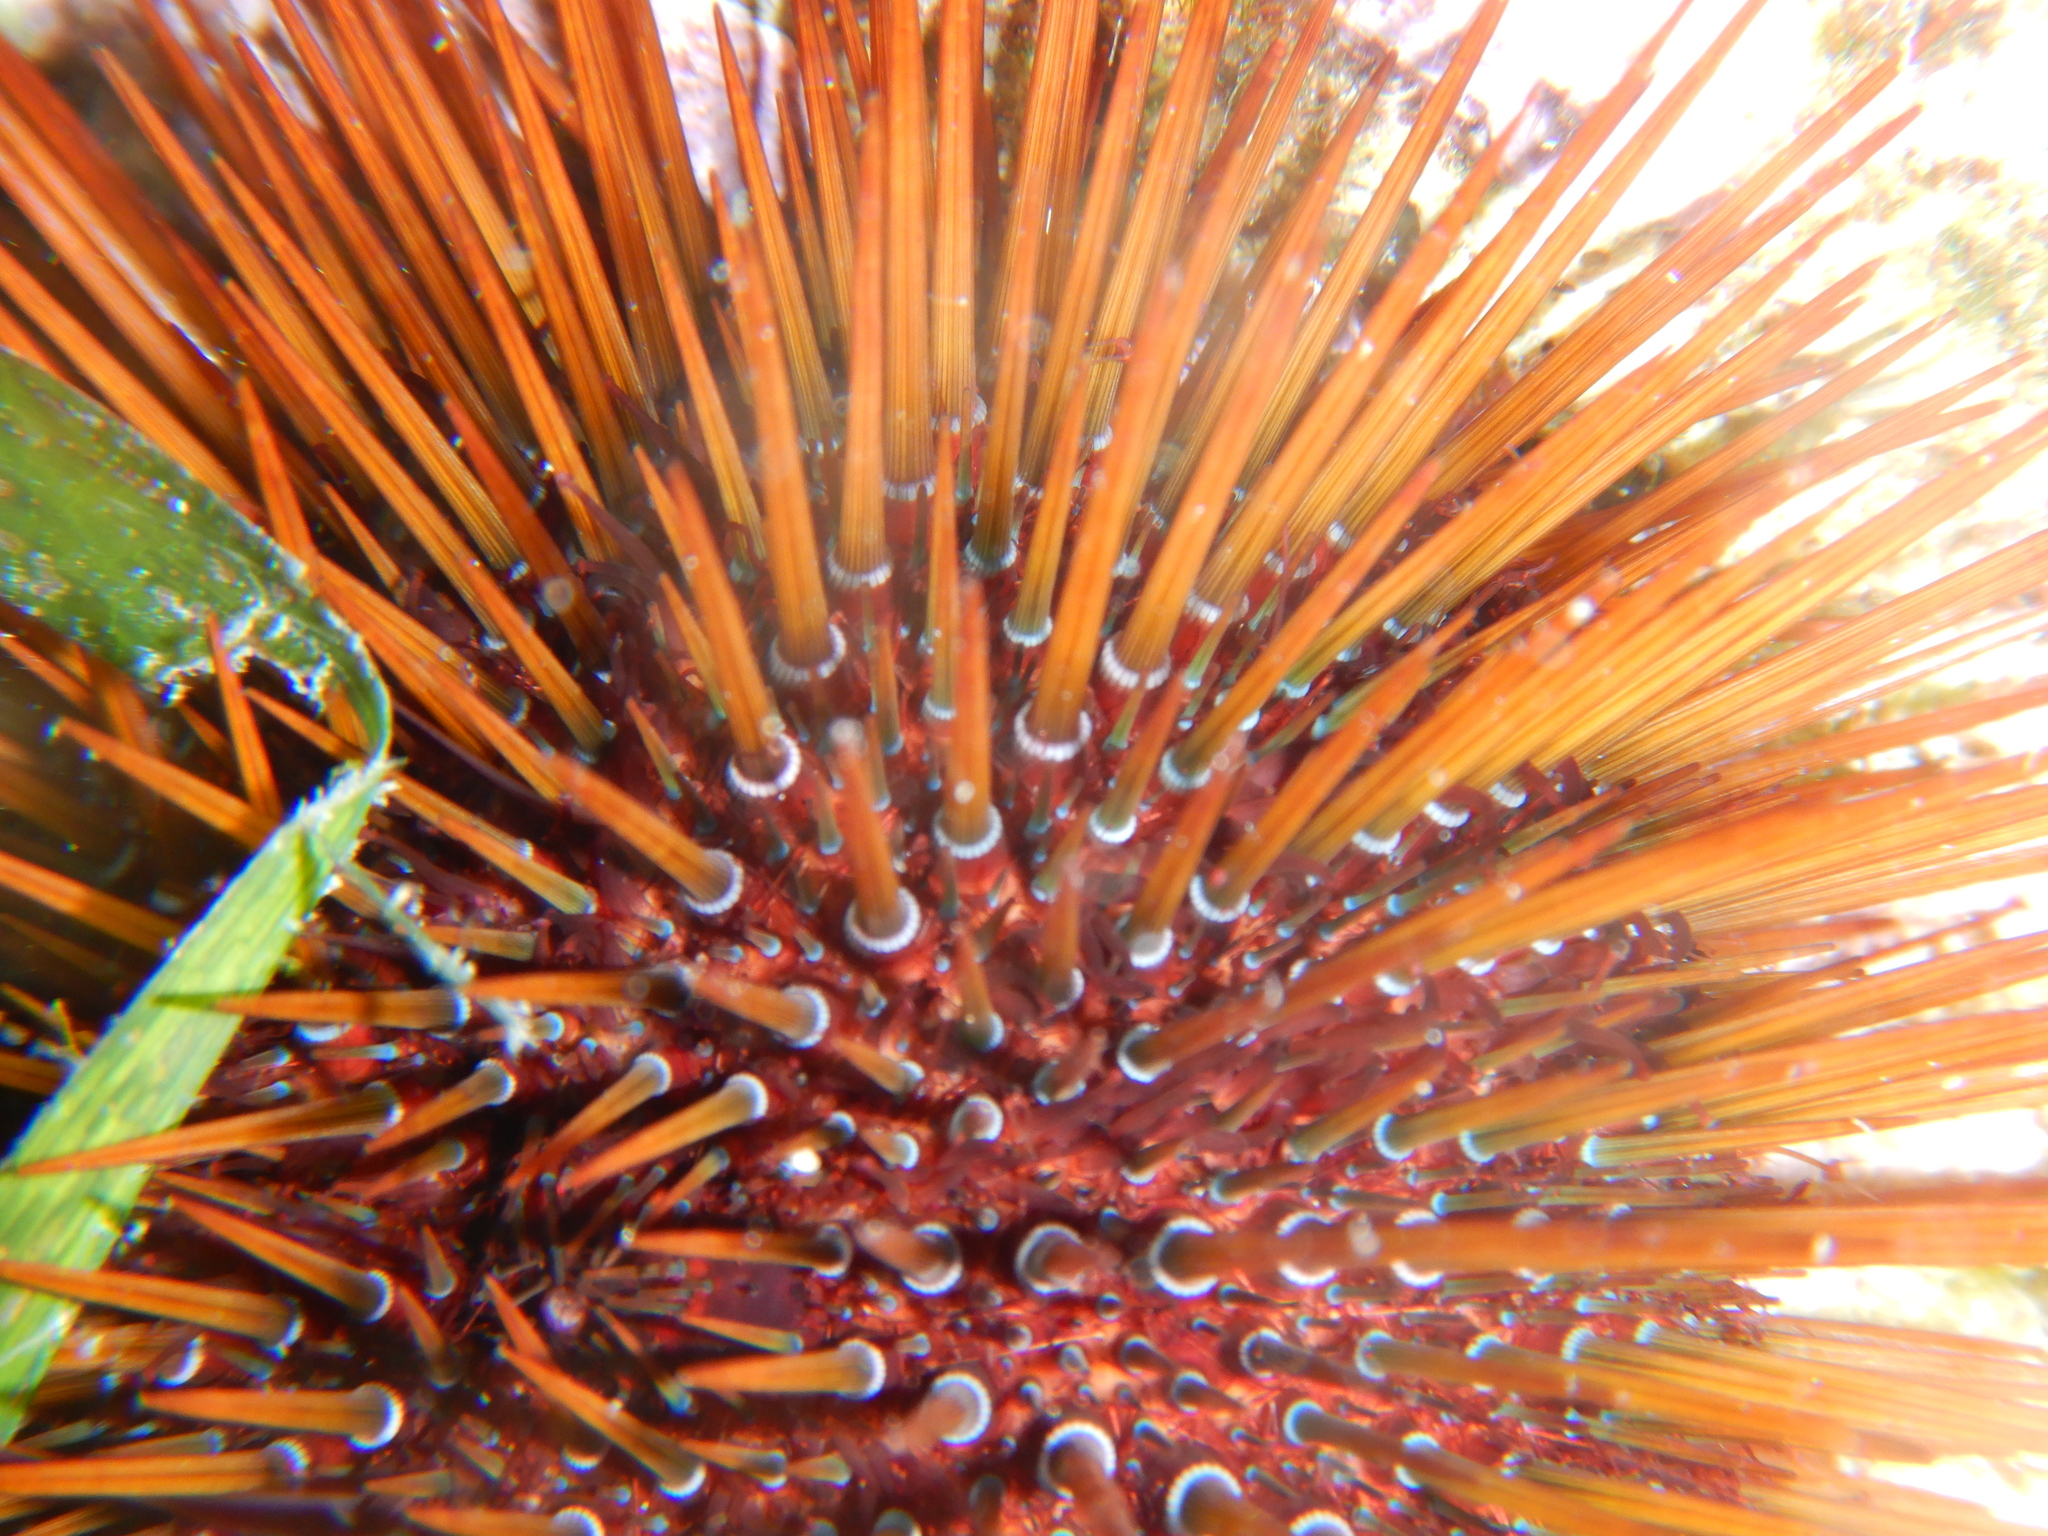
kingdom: Animalia
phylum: Echinodermata
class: Echinoidea
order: Camarodonta
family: Parechinidae
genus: Paracentrotus
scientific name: Paracentrotus lividus
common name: Purple sea urchin
